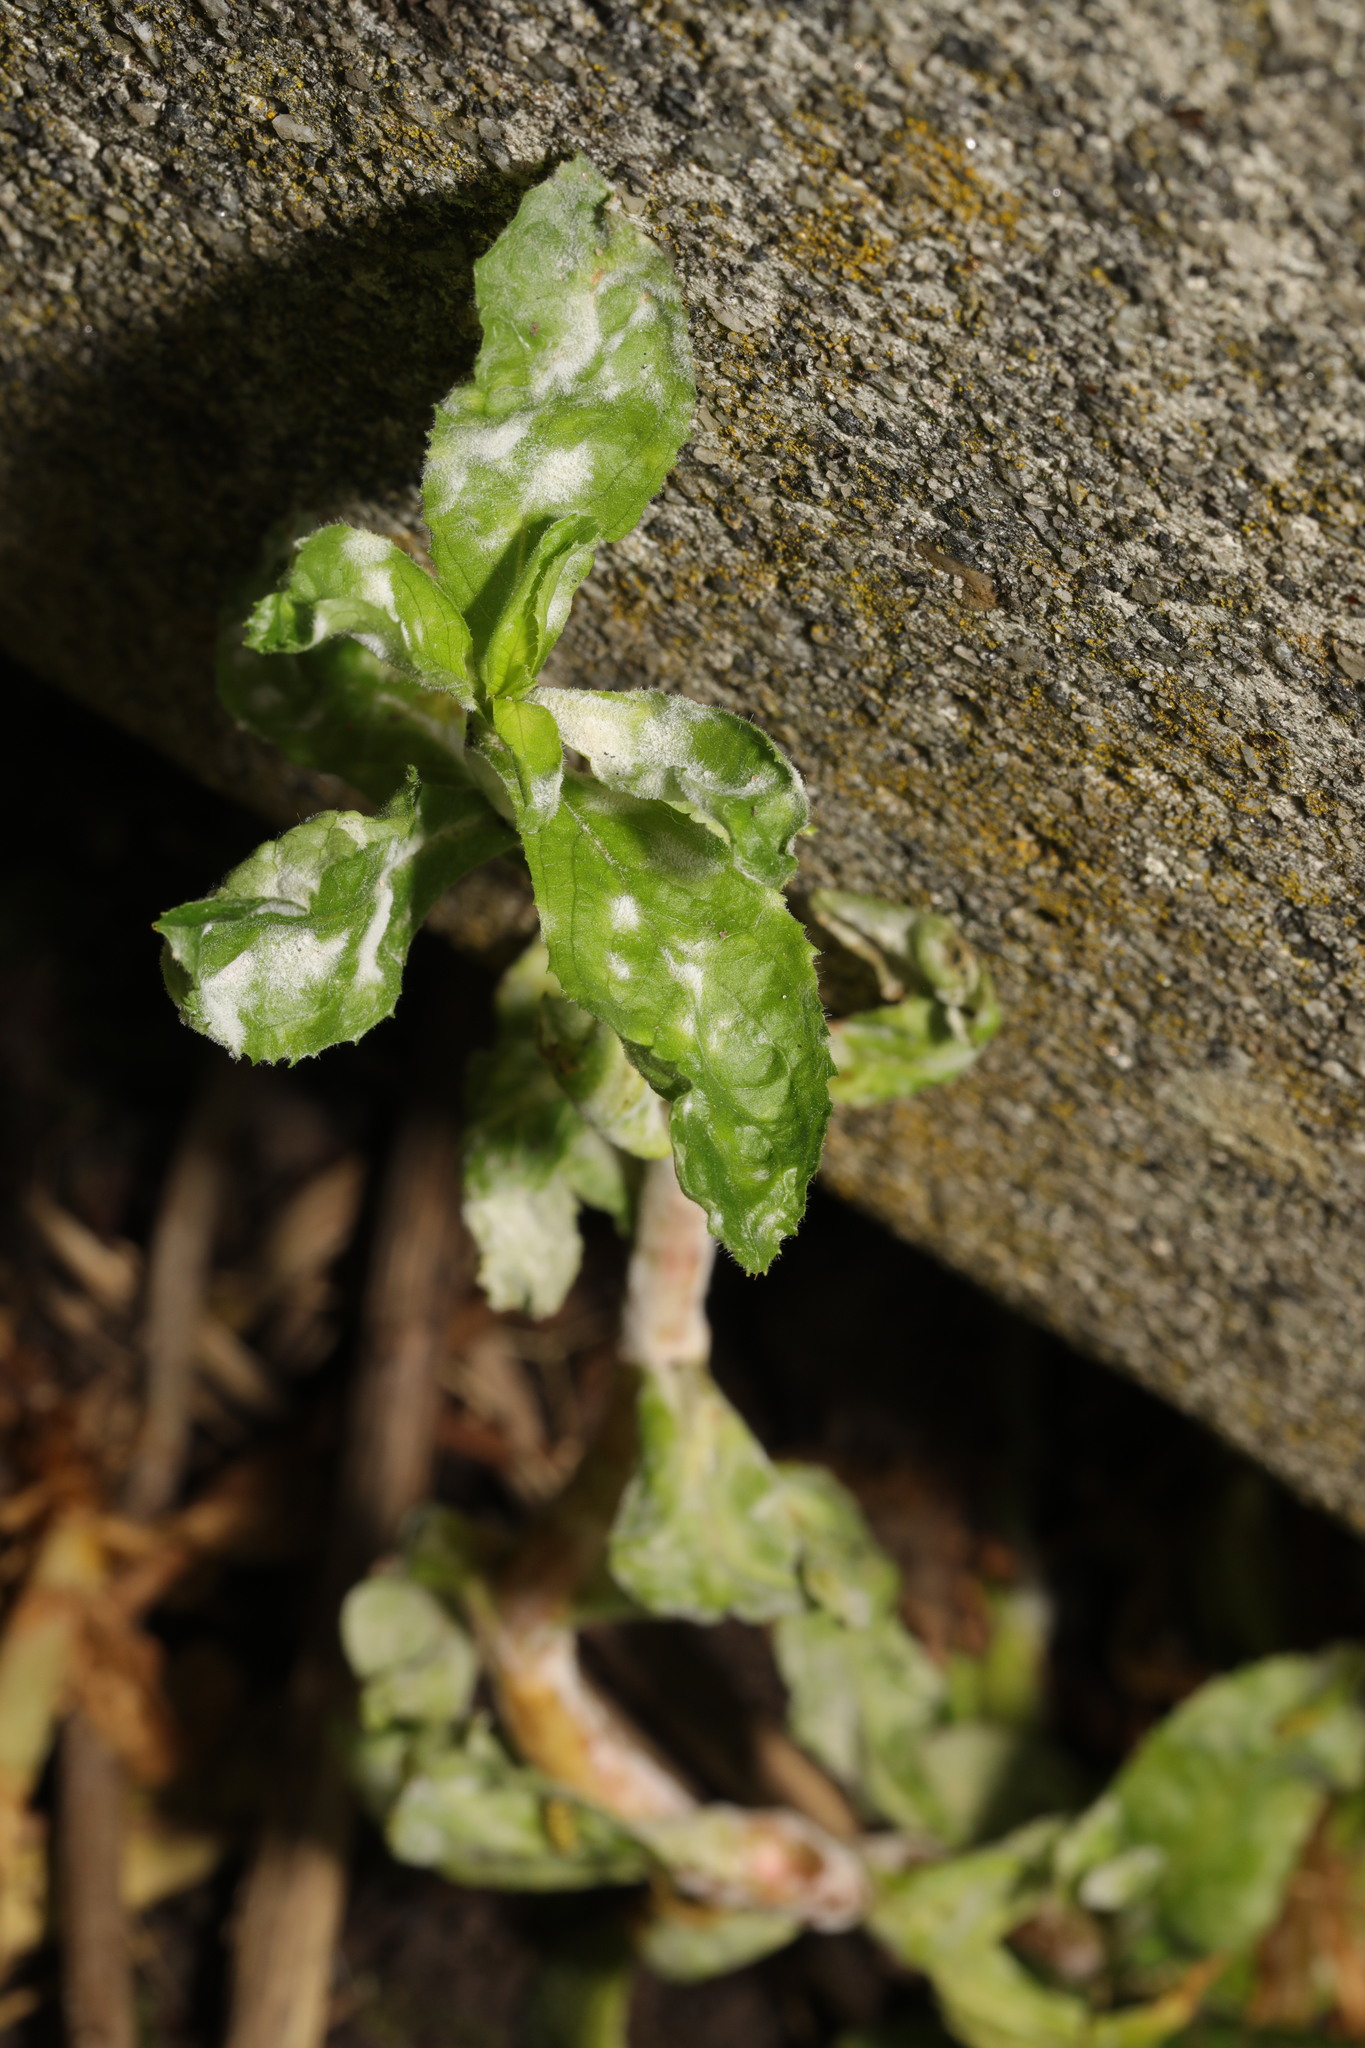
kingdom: Fungi
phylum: Ascomycota
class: Leotiomycetes
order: Helotiales
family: Erysiphaceae
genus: Podosphaera
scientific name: Podosphaera epilobii
